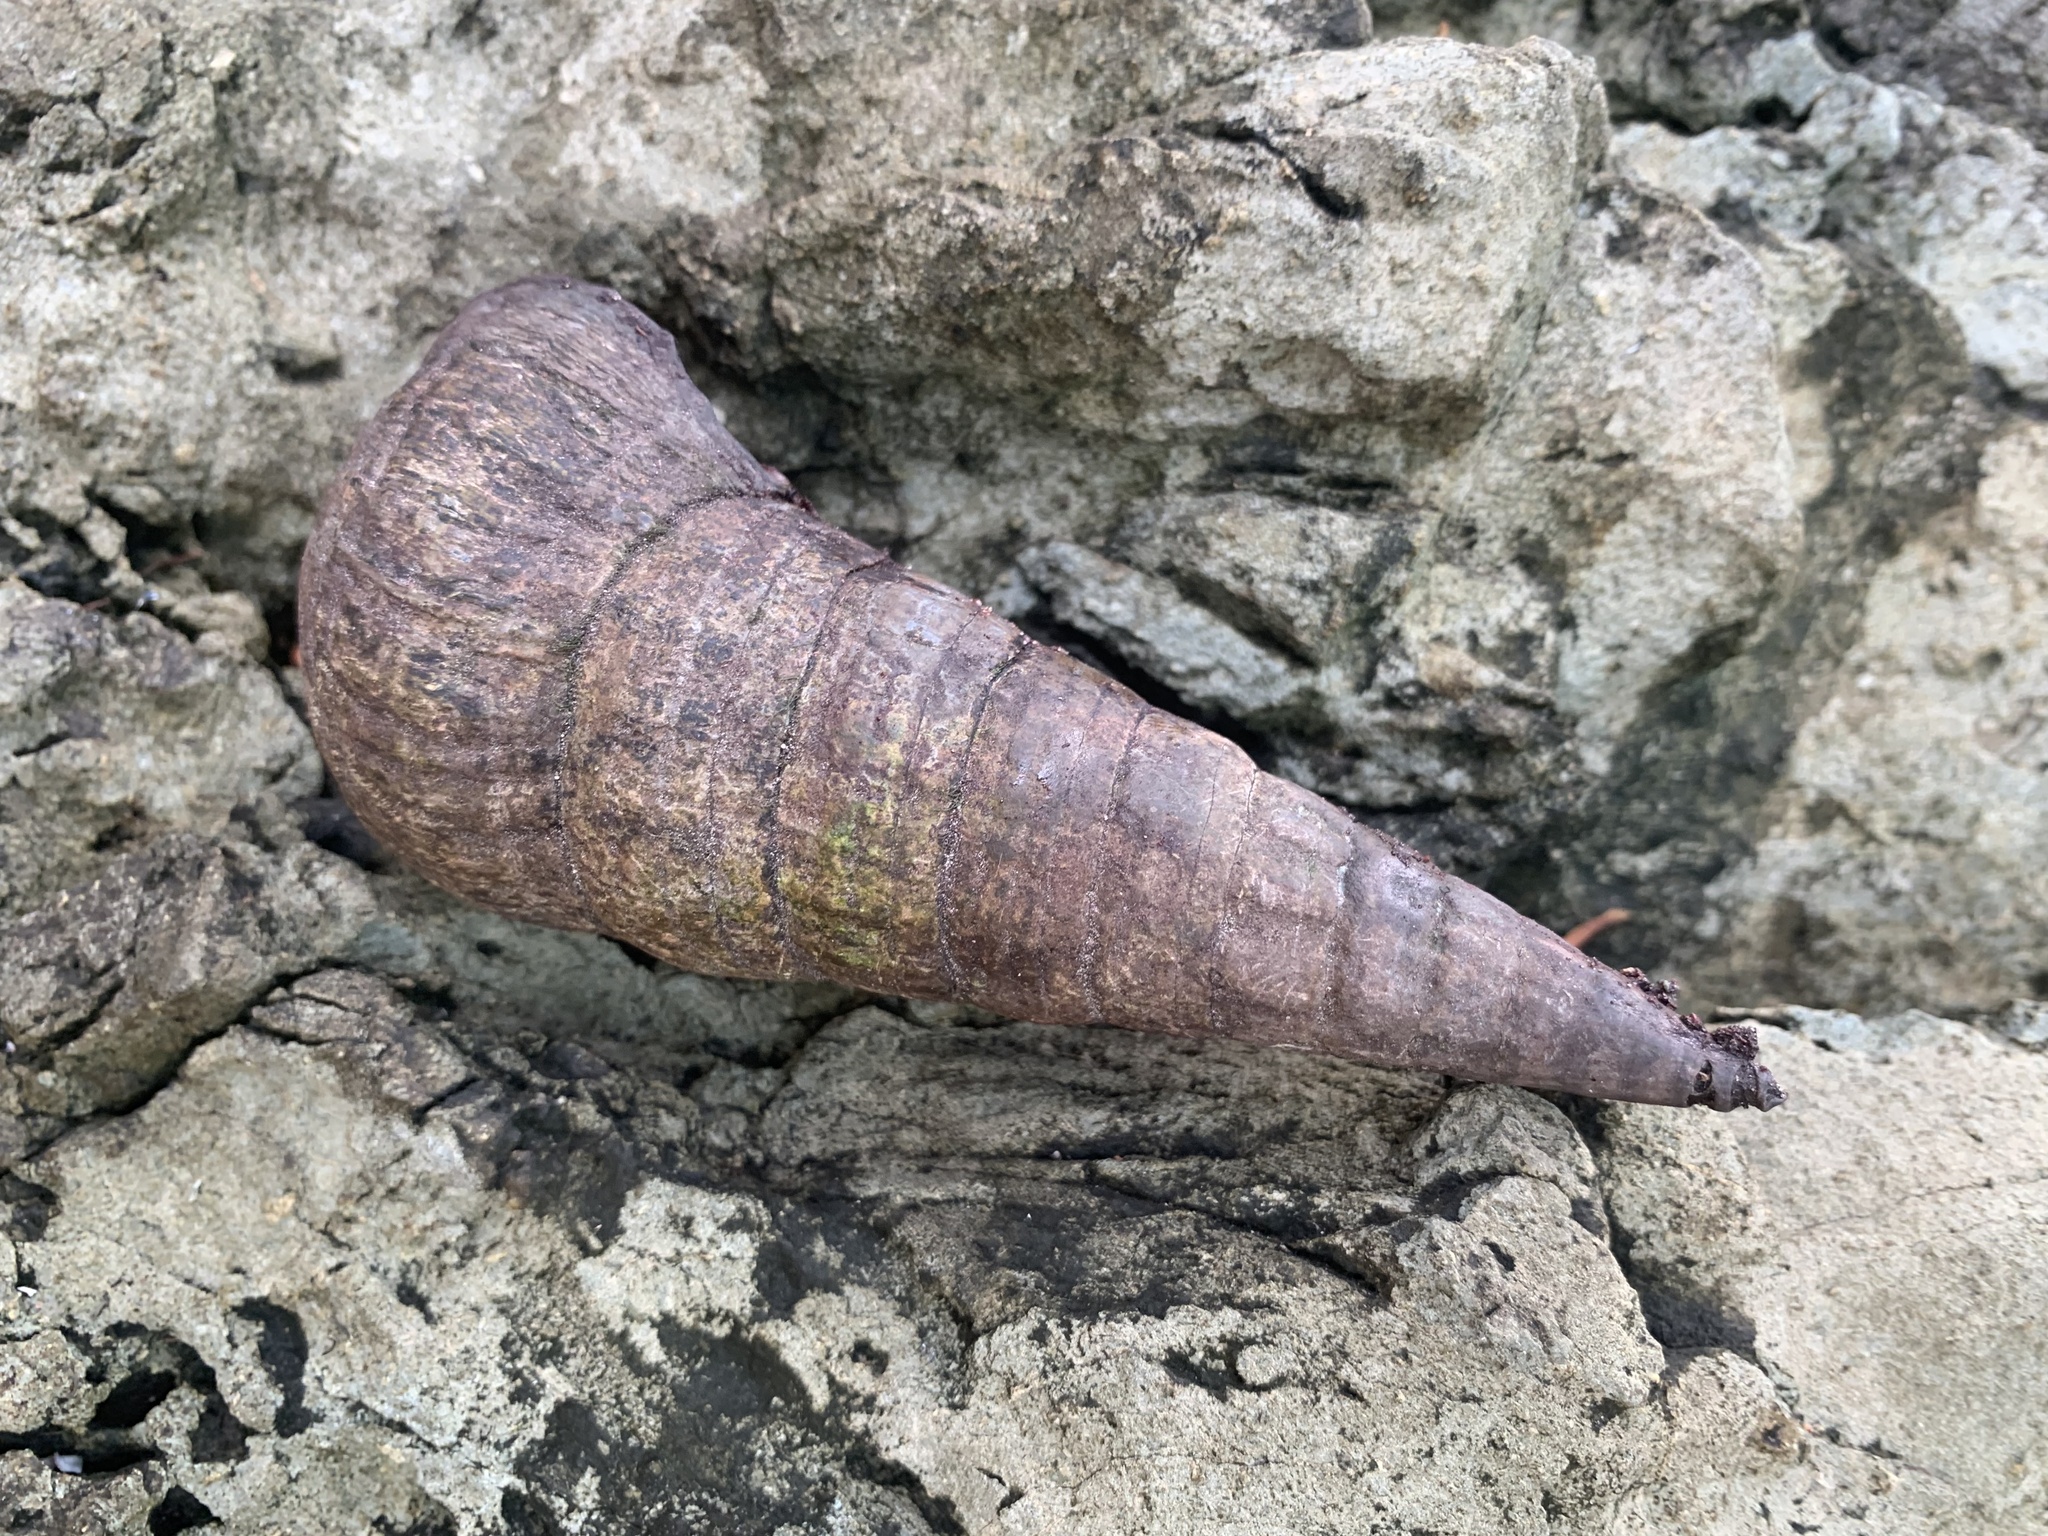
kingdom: Animalia
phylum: Mollusca
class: Gastropoda
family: Potamididae
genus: Terebralia
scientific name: Terebralia palustris
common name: Mangrove whelk
